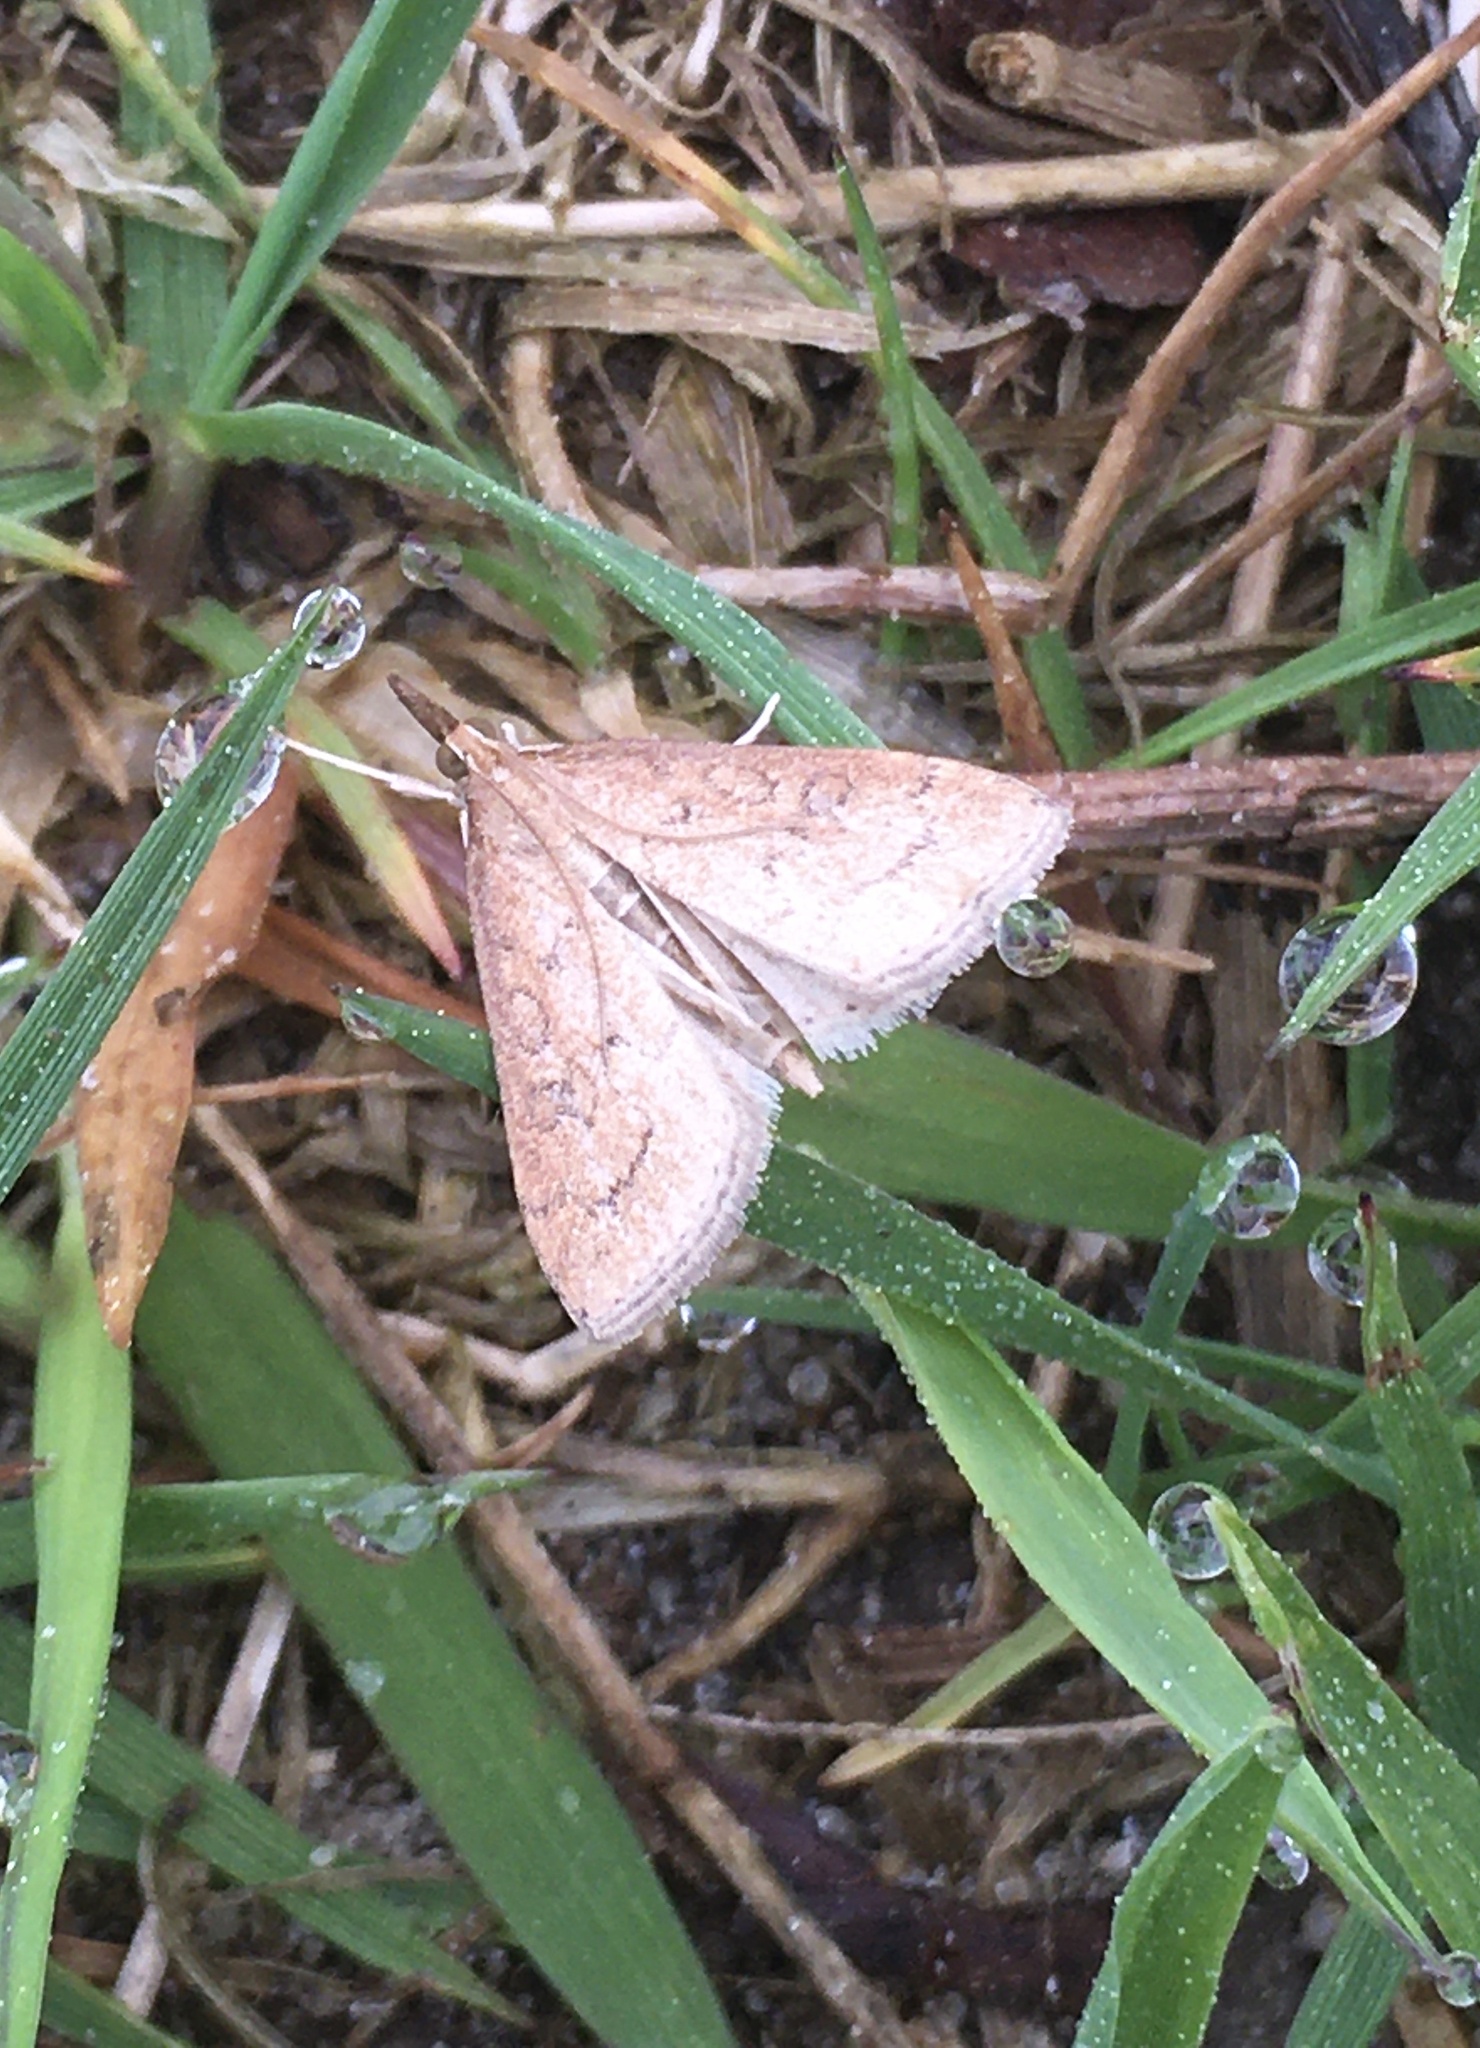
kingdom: Animalia
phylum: Arthropoda
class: Insecta
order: Lepidoptera
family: Crambidae
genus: Udea
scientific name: Udea rubigalis
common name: Celery leaftier moth
